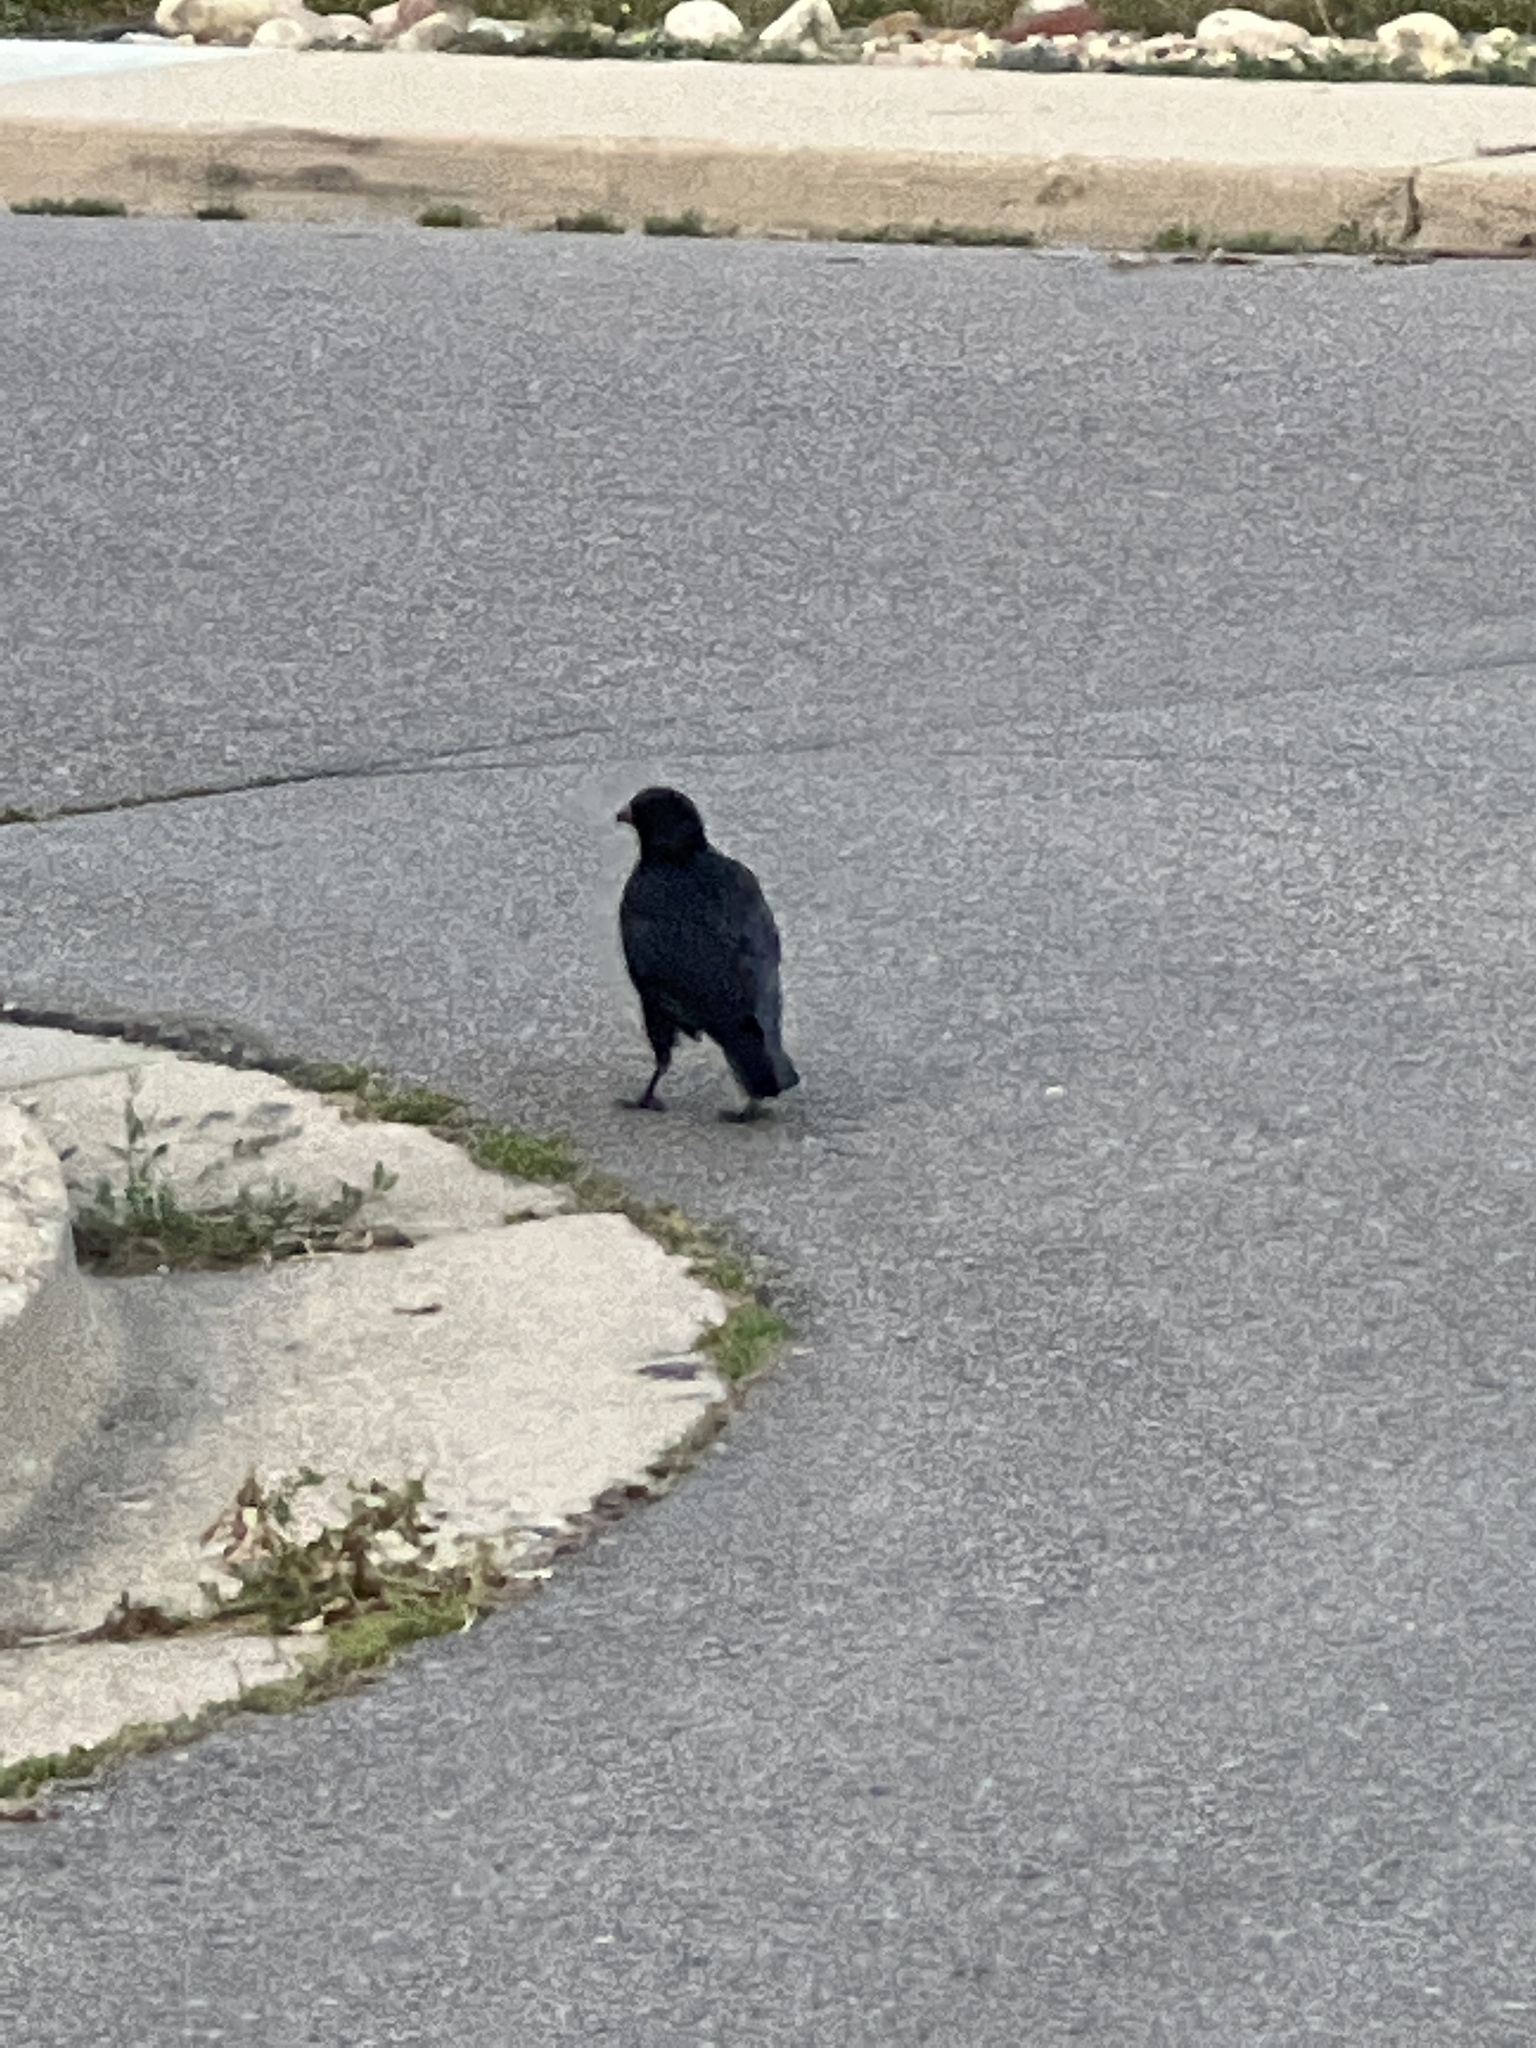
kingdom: Animalia
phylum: Chordata
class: Aves
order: Passeriformes
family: Corvidae
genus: Corvus
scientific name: Corvus brachyrhynchos
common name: American crow
